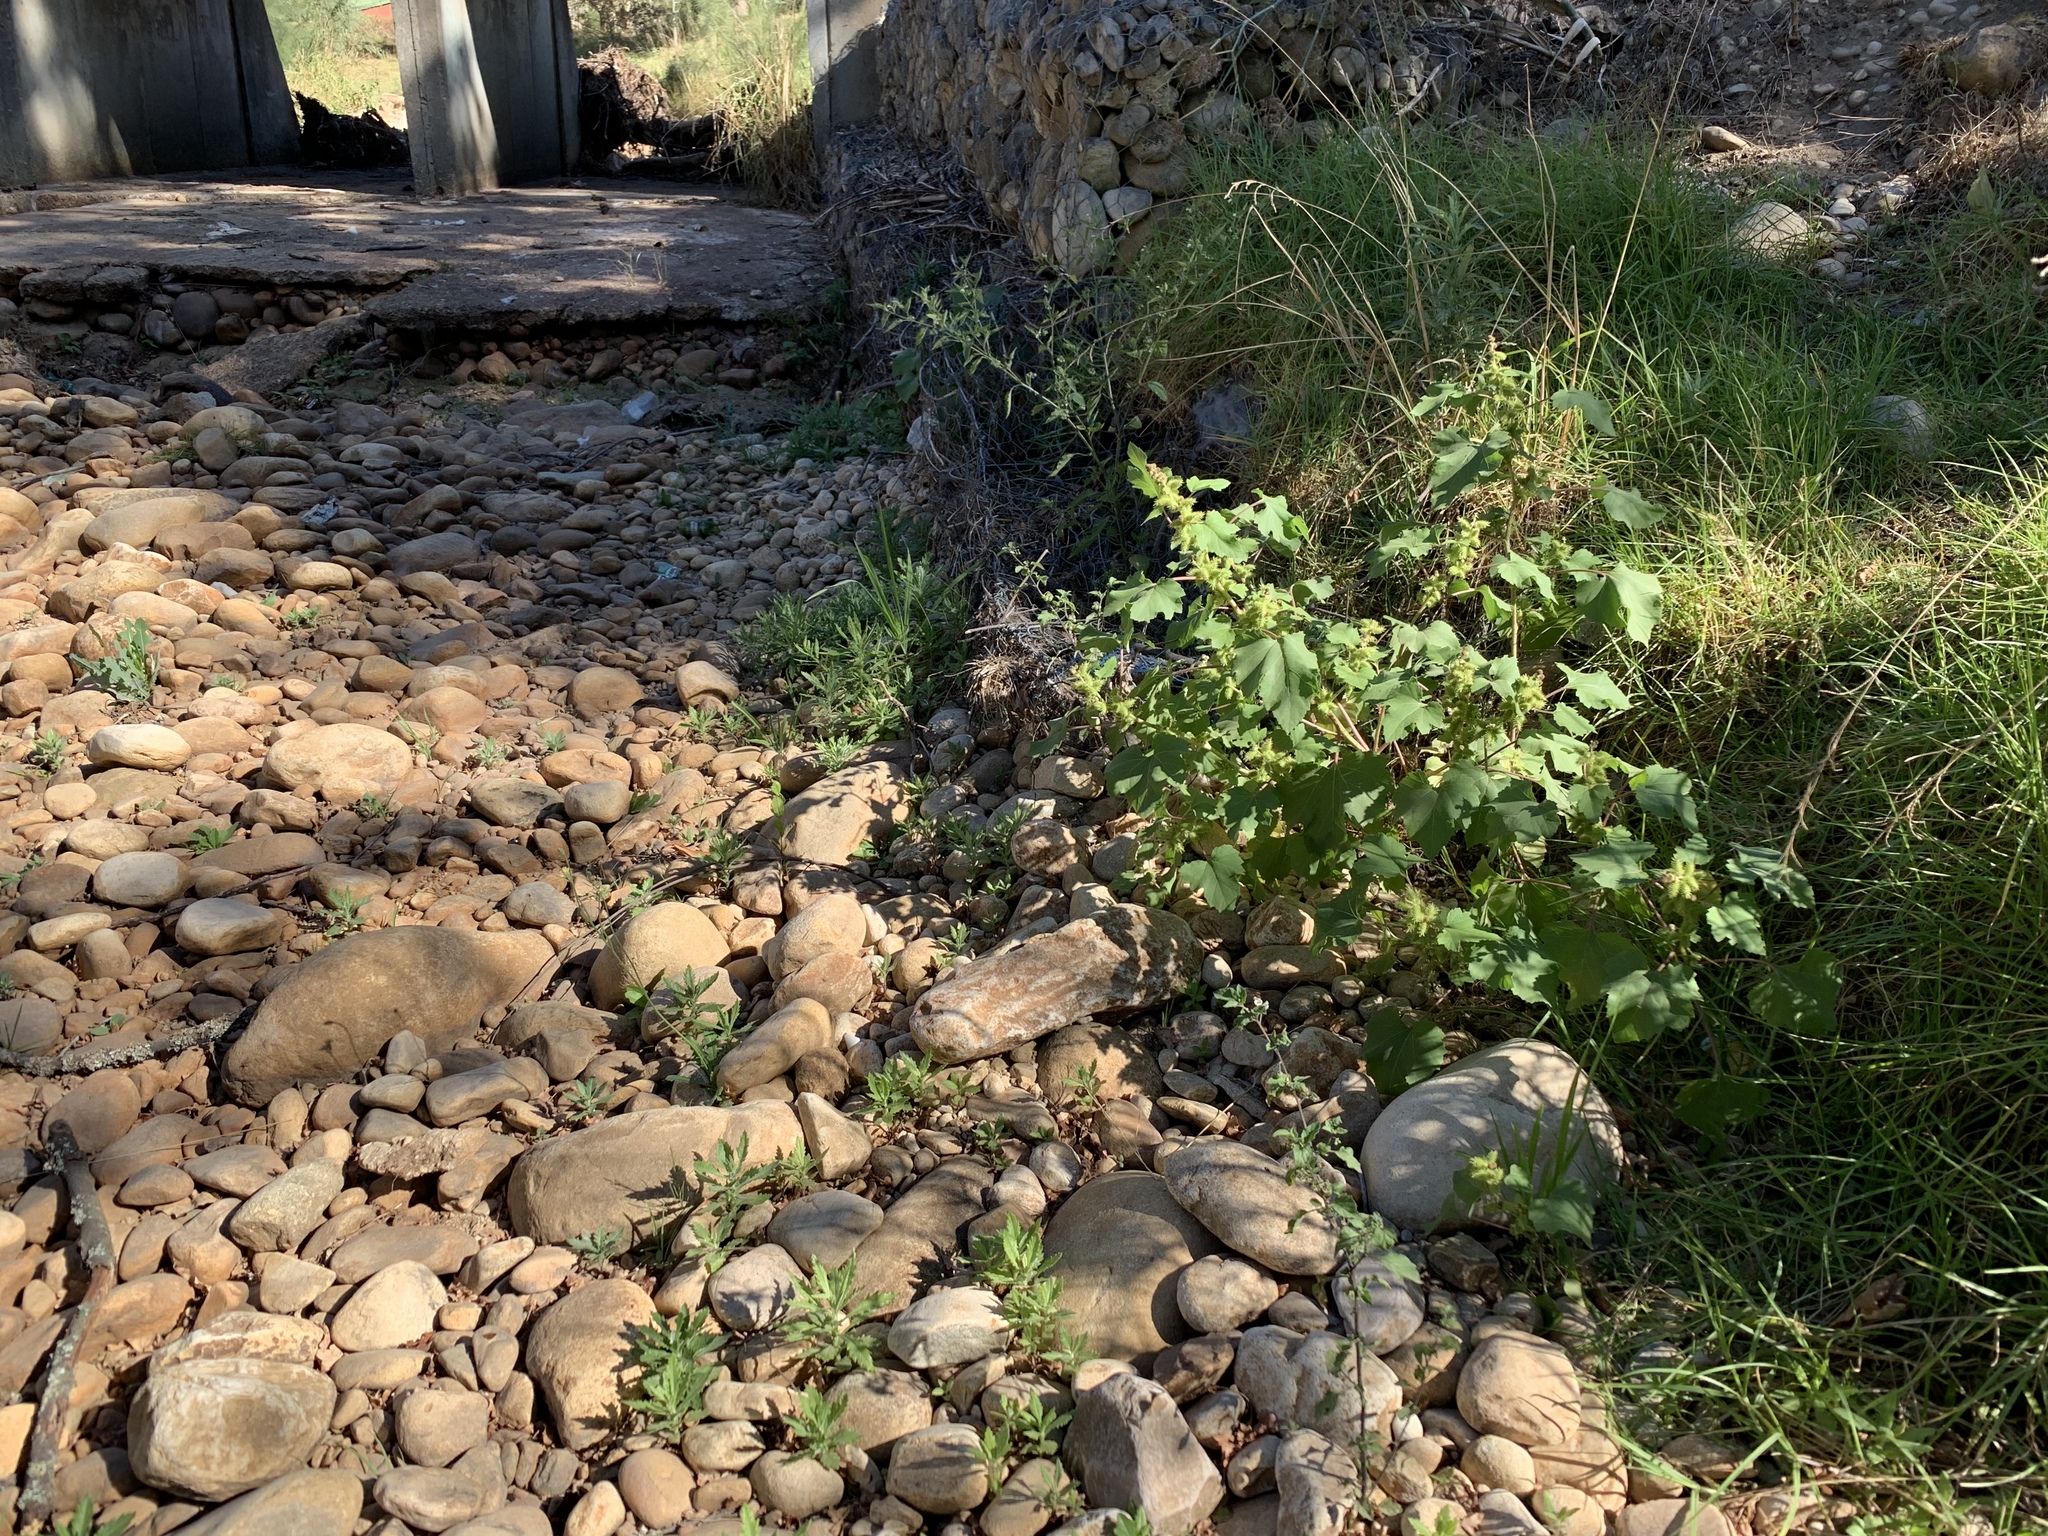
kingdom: Plantae
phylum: Tracheophyta
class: Magnoliopsida
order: Asterales
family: Asteraceae
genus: Xanthium
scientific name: Xanthium strumarium
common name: Rough cocklebur
